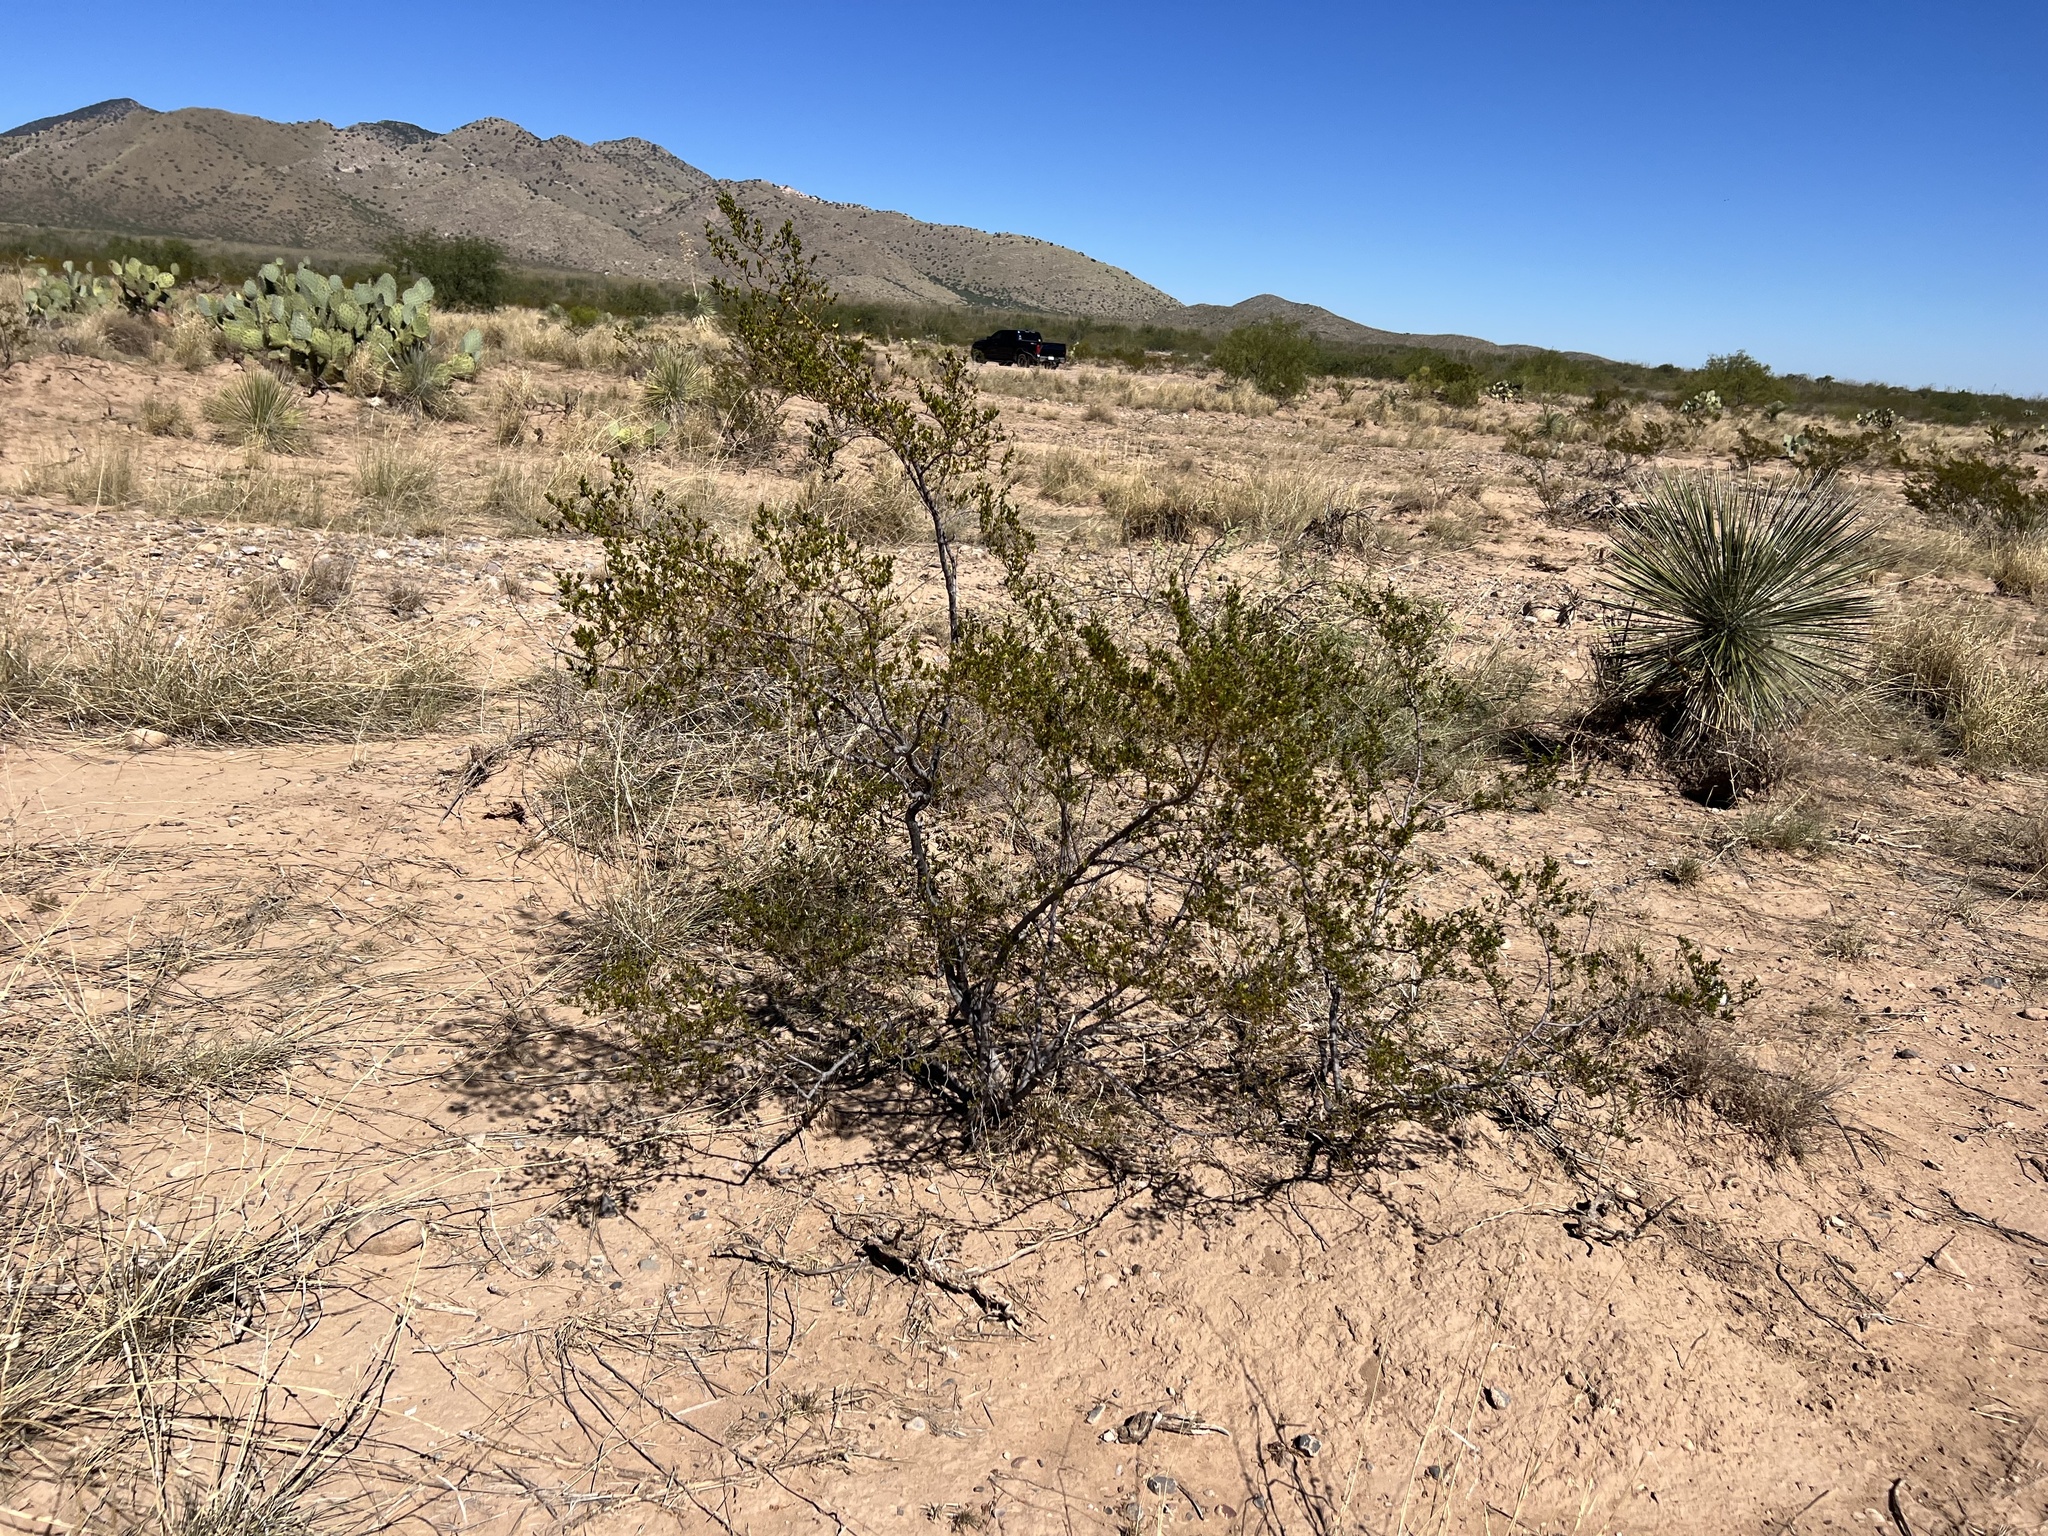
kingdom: Plantae
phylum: Tracheophyta
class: Magnoliopsida
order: Zygophyllales
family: Zygophyllaceae
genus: Larrea
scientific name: Larrea tridentata
